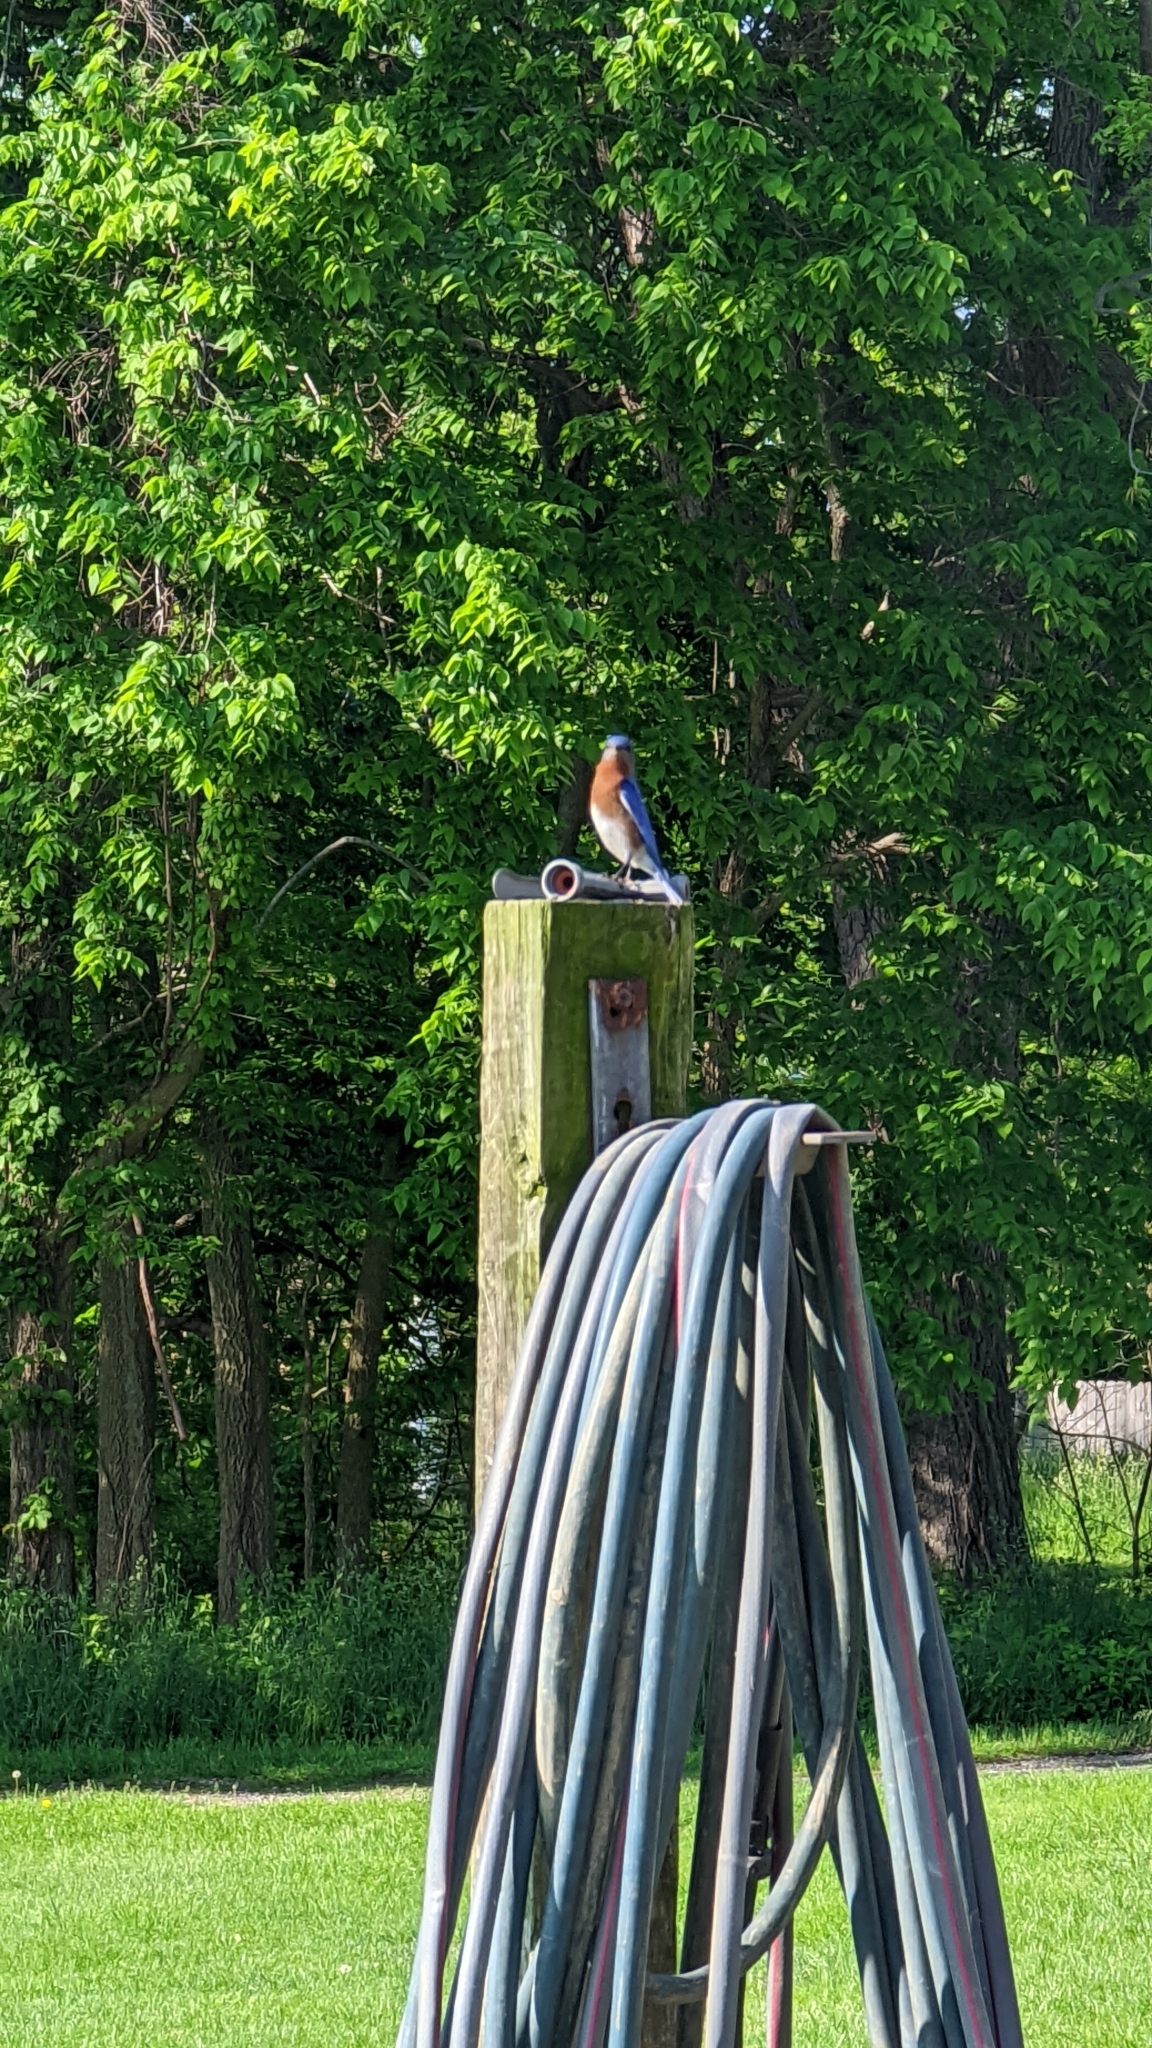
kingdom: Animalia
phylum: Chordata
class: Aves
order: Passeriformes
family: Turdidae
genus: Sialia
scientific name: Sialia sialis
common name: Eastern bluebird
